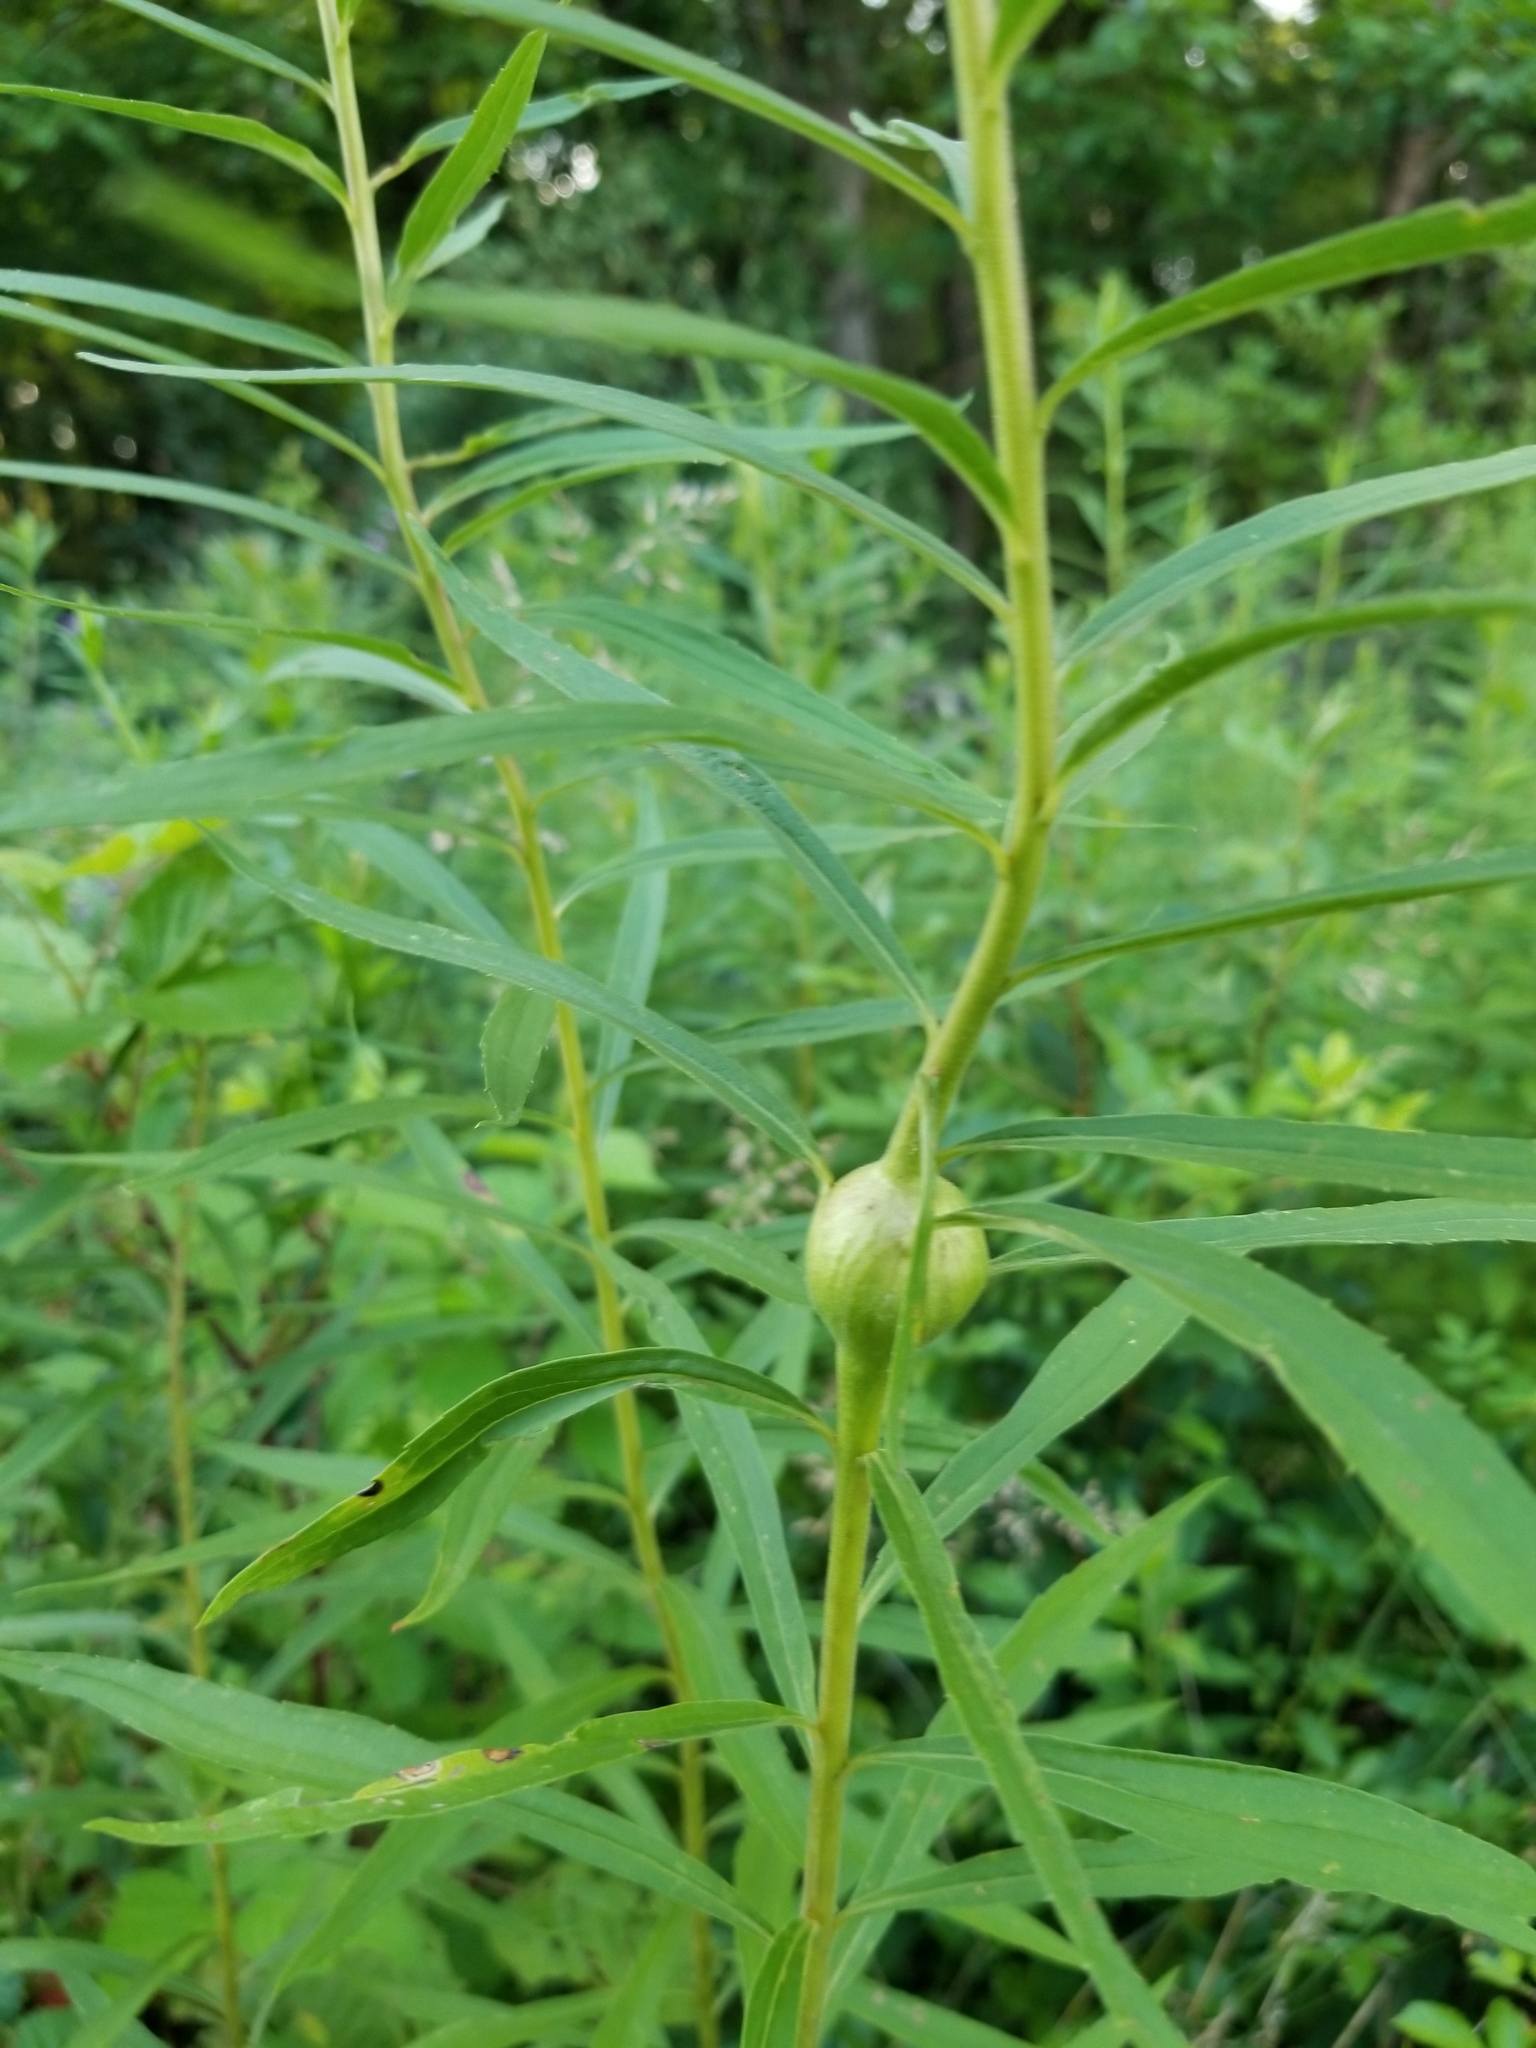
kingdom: Animalia
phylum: Arthropoda
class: Insecta
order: Diptera
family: Tephritidae
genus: Eurosta
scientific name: Eurosta solidaginis
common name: Goldenrod gall fly
